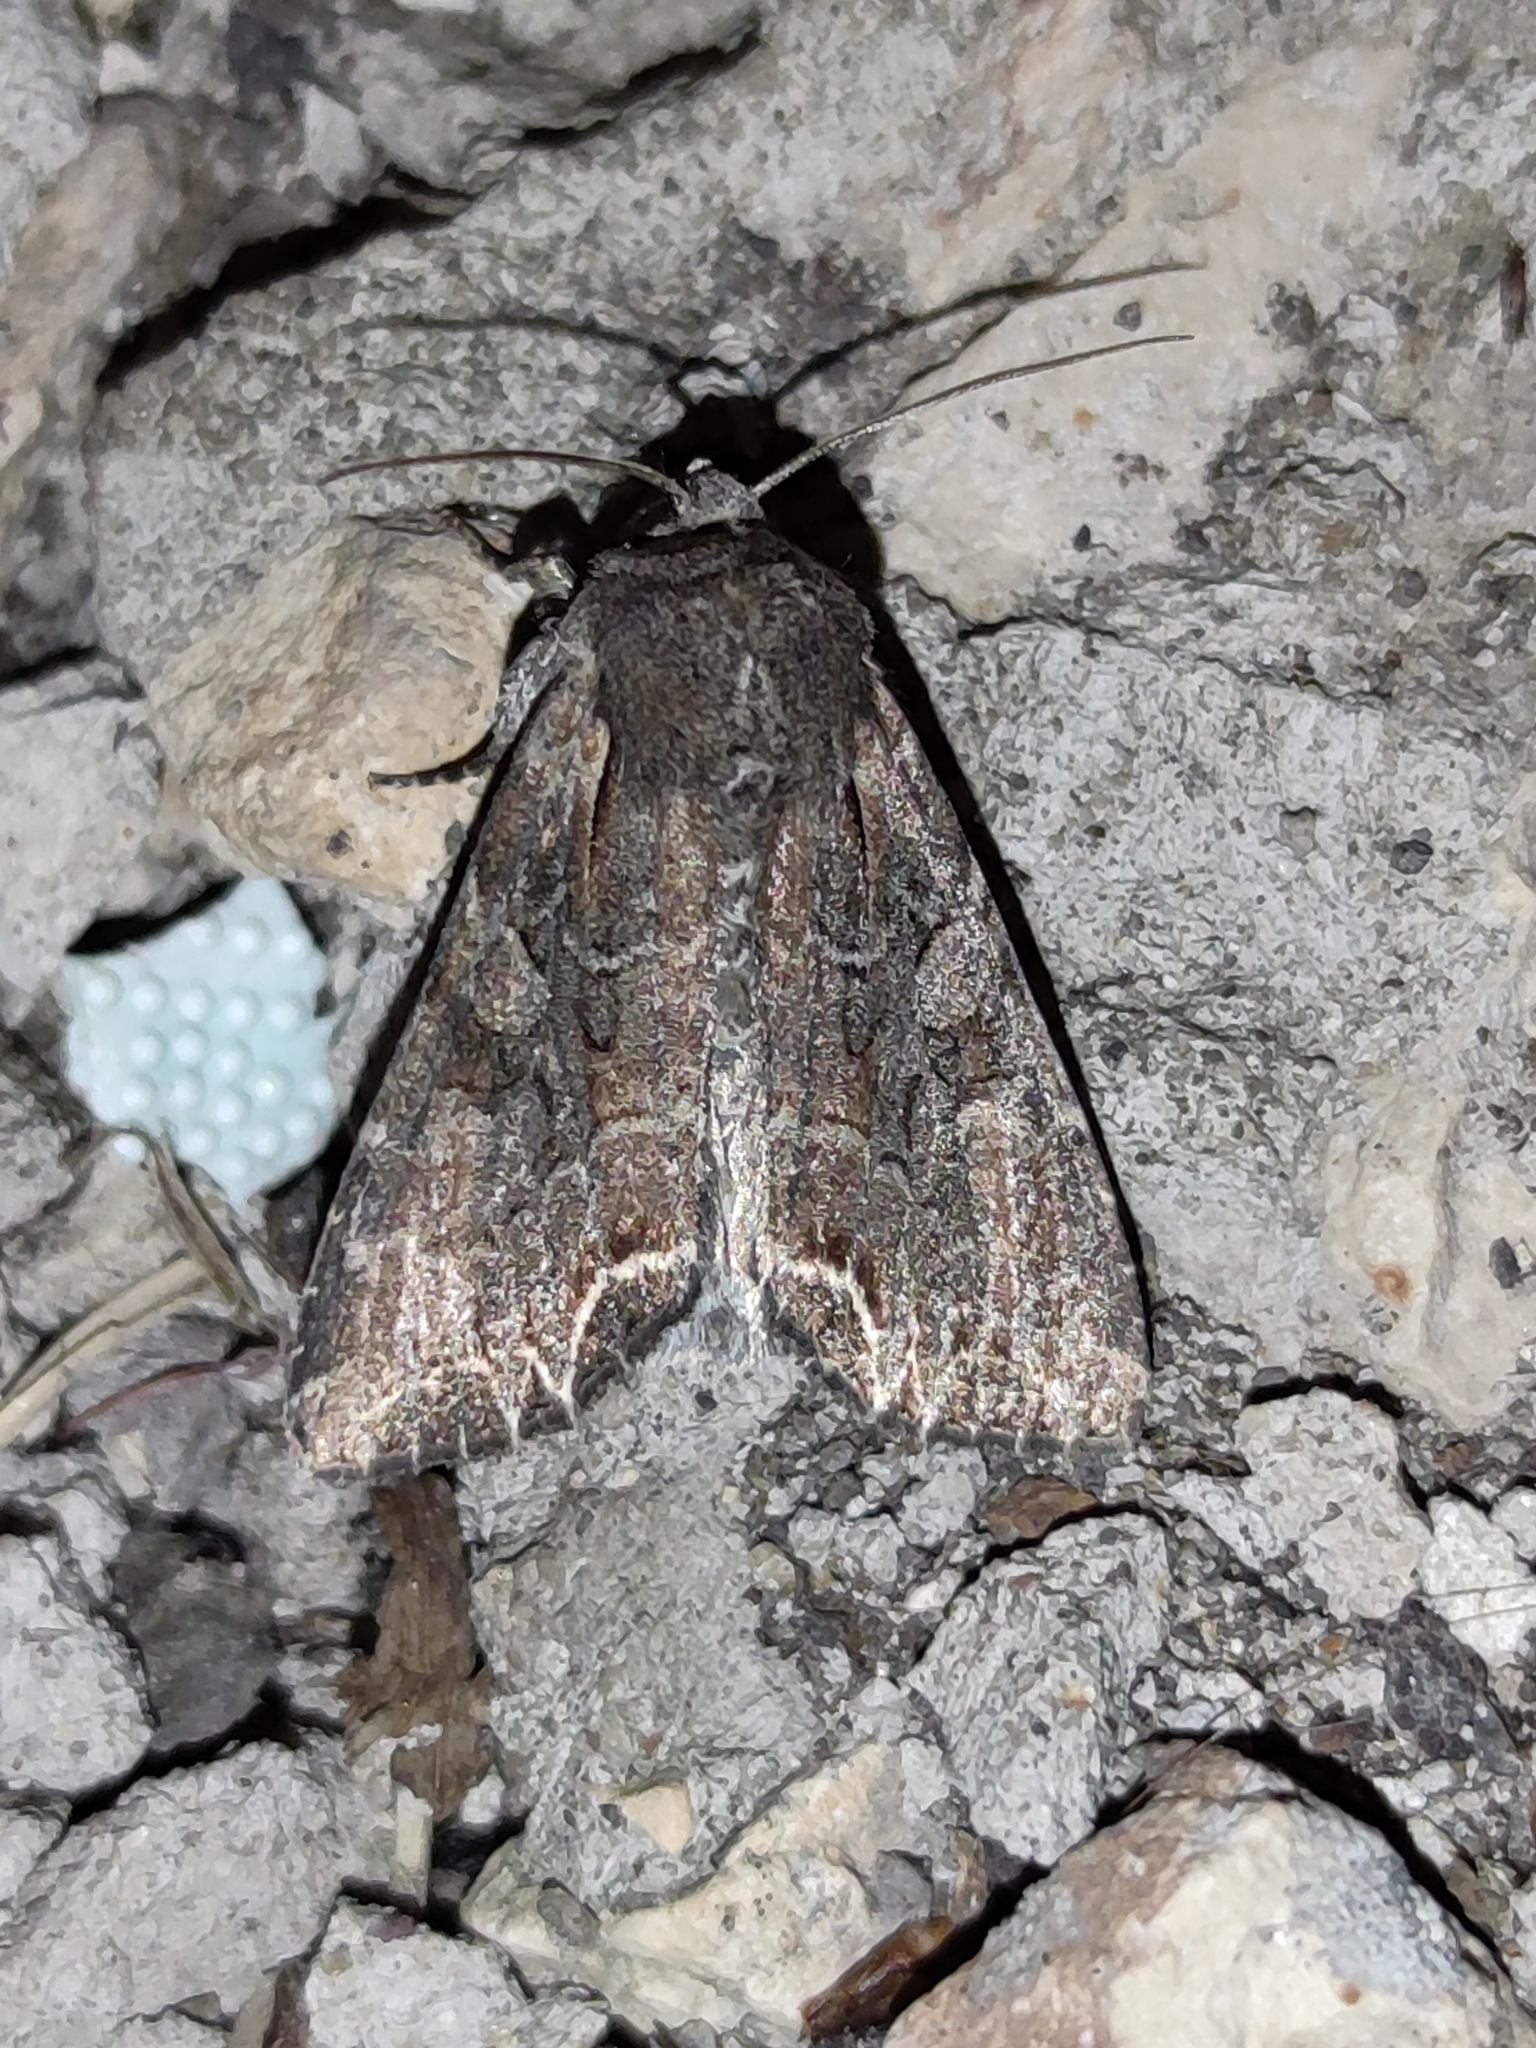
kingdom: Animalia
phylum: Arthropoda
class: Insecta
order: Lepidoptera
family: Noctuidae
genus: Lacanobia
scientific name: Lacanobia suasa
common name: Dog's tooth
